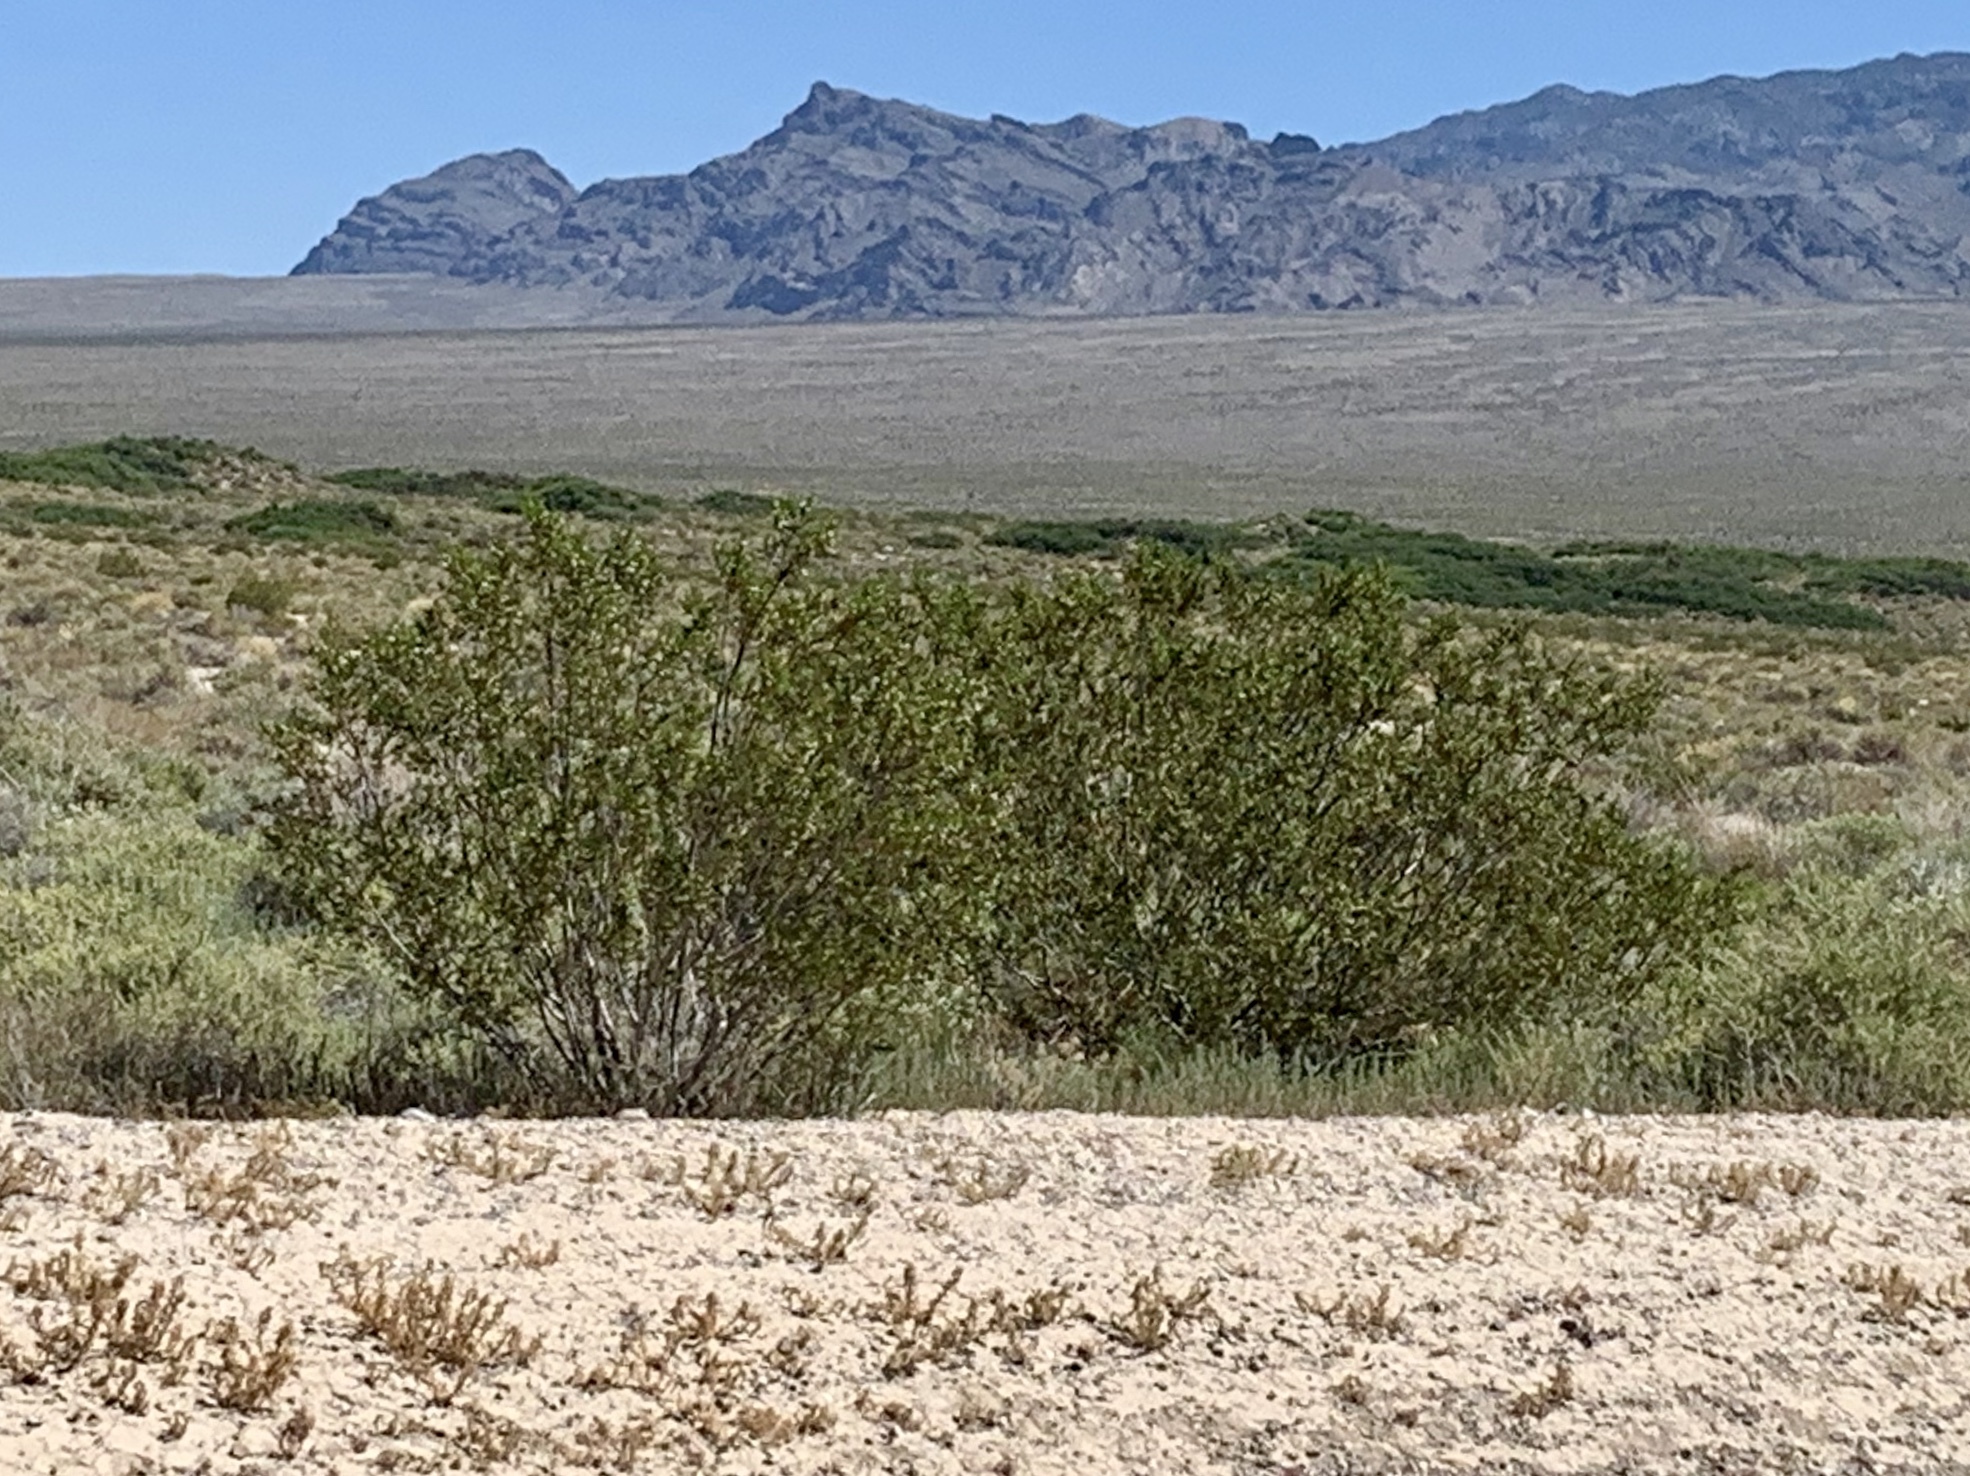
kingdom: Plantae
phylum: Tracheophyta
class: Magnoliopsida
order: Zygophyllales
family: Zygophyllaceae
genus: Larrea
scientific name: Larrea tridentata
